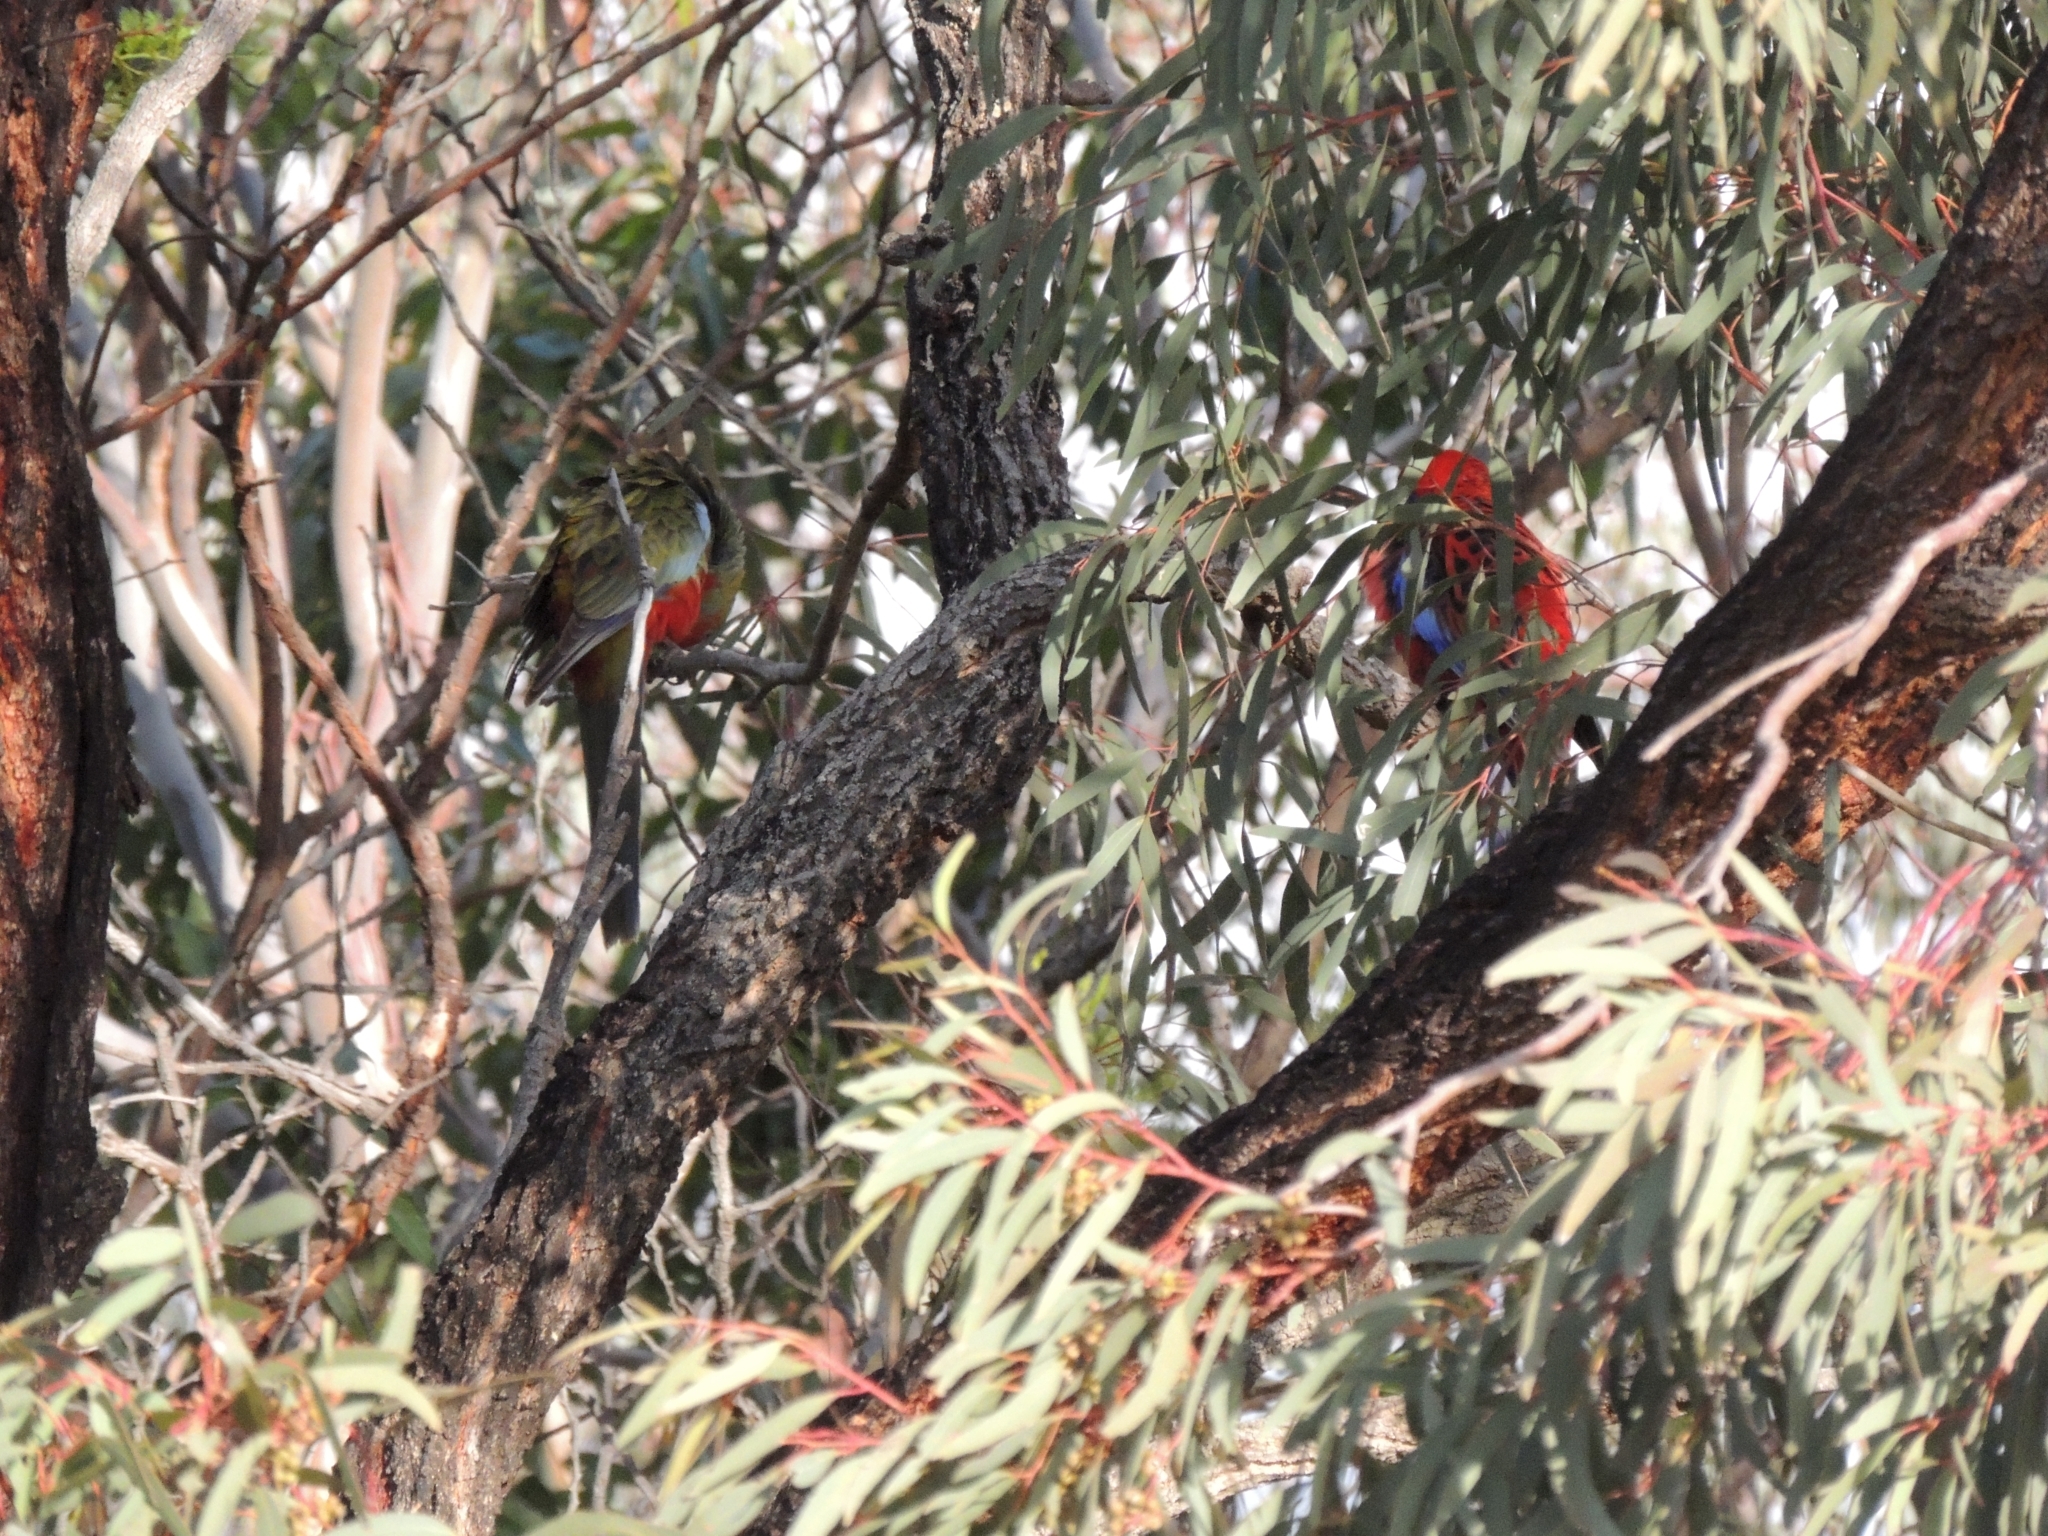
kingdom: Animalia
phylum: Chordata
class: Aves
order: Psittaciformes
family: Psittacidae
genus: Platycercus
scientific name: Platycercus elegans
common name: Crimson rosella
